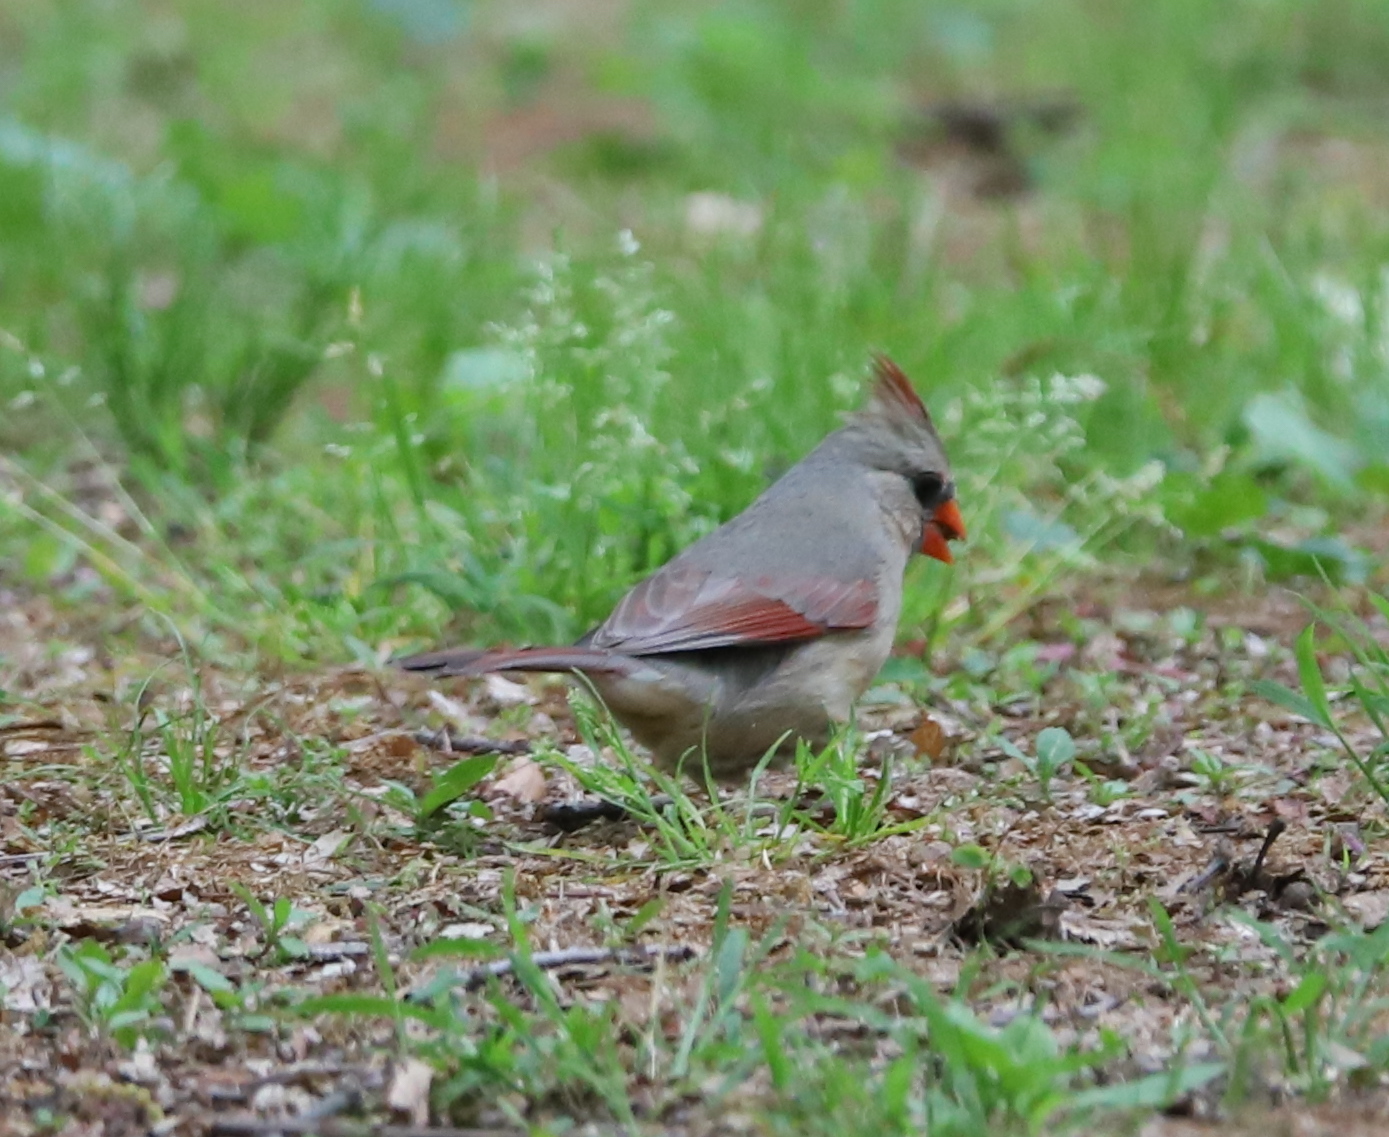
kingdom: Animalia
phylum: Chordata
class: Aves
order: Passeriformes
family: Cardinalidae
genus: Cardinalis
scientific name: Cardinalis cardinalis
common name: Northern cardinal
